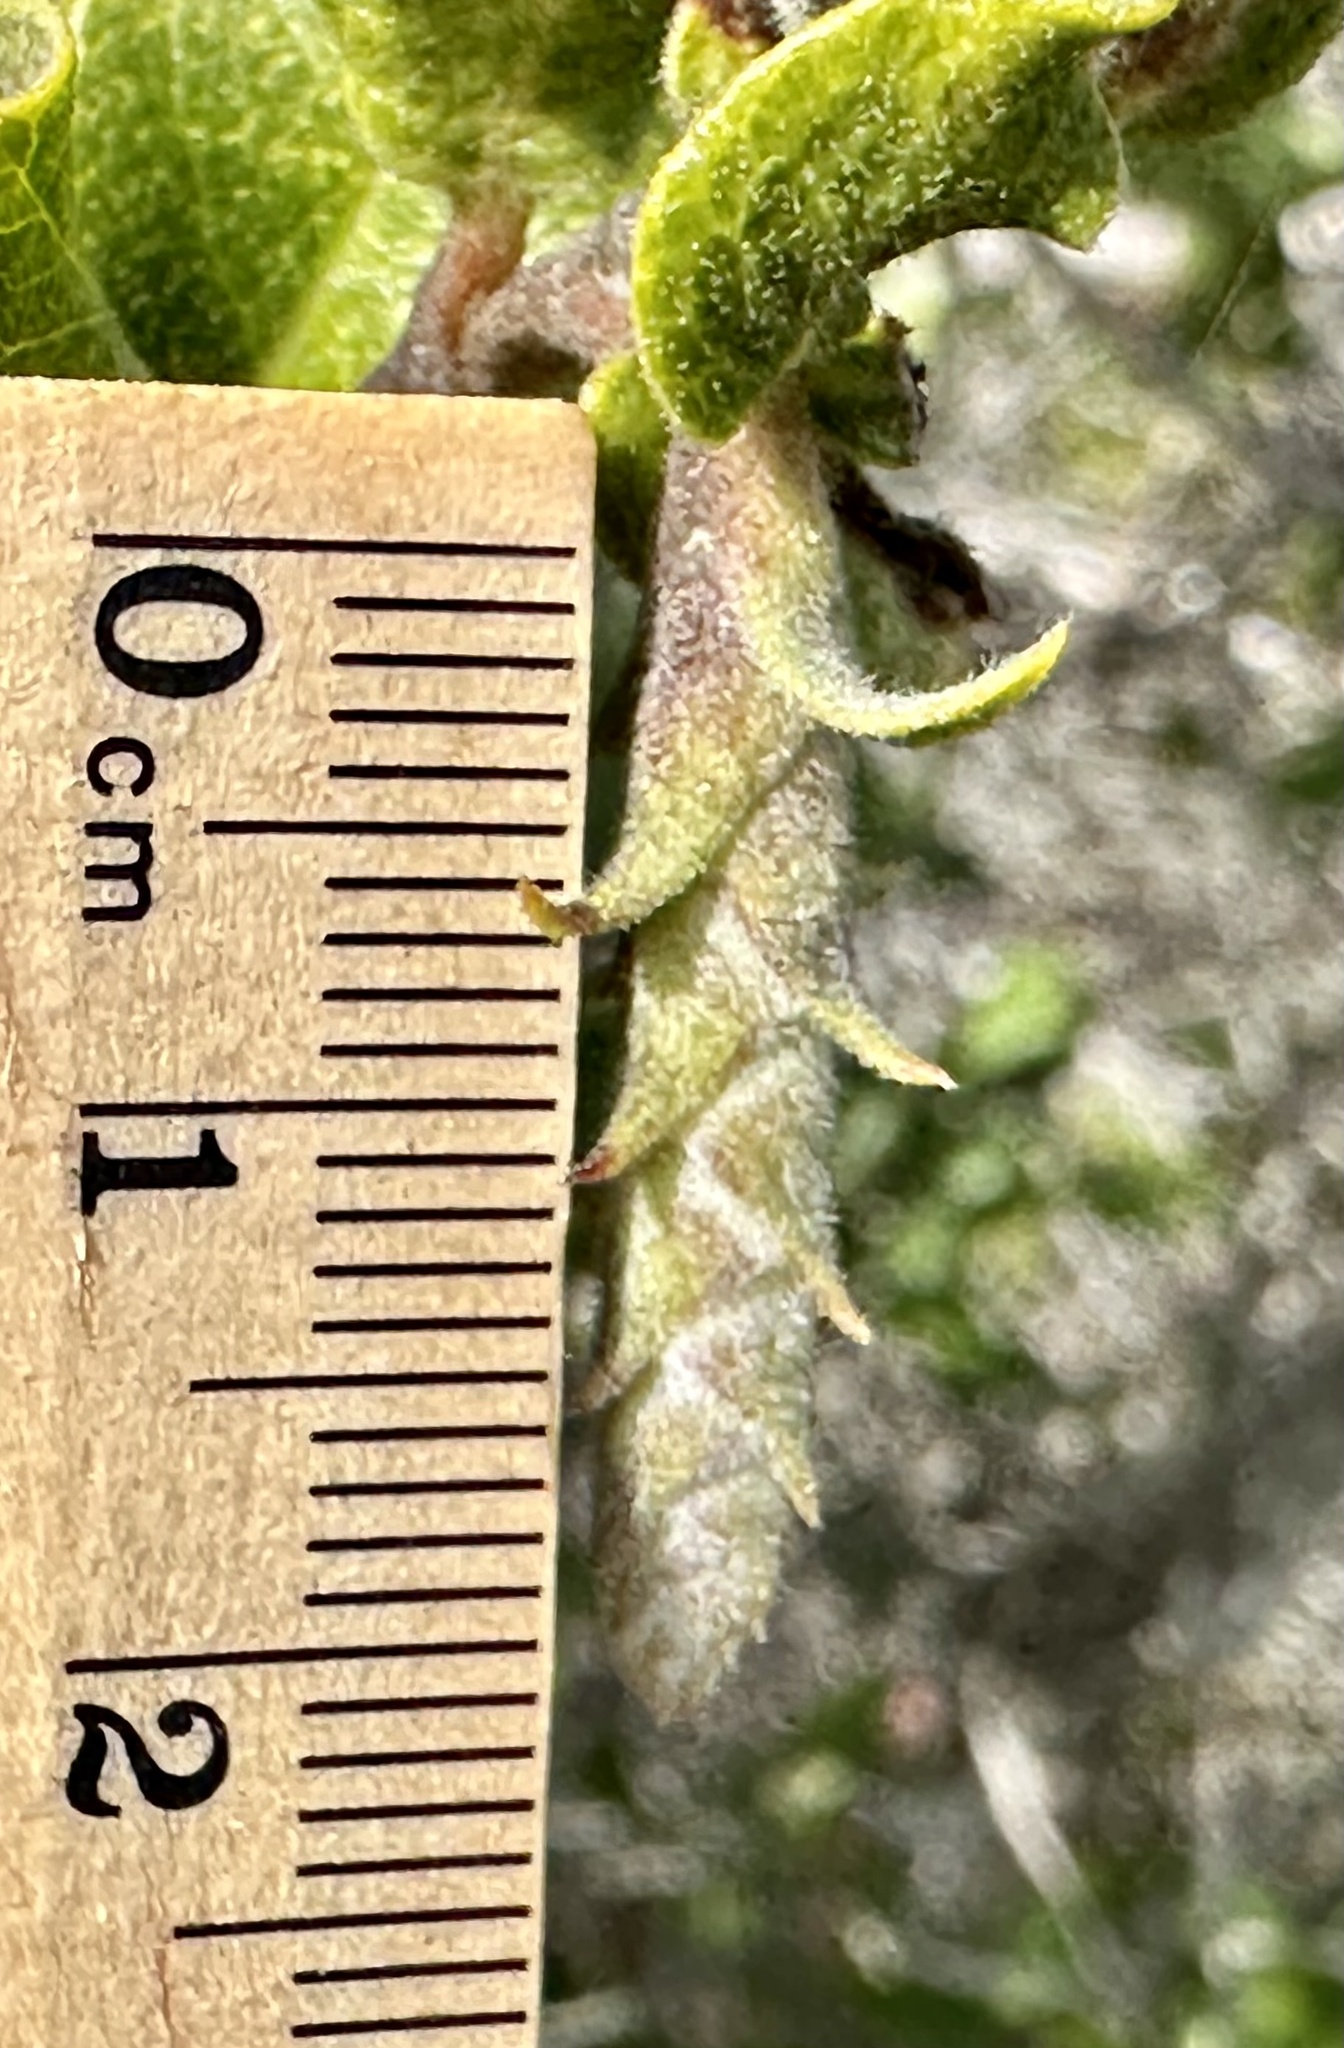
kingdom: Plantae
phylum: Tracheophyta
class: Magnoliopsida
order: Garryales
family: Garryaceae
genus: Garrya
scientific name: Garrya elliptica
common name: Silk-tassel
